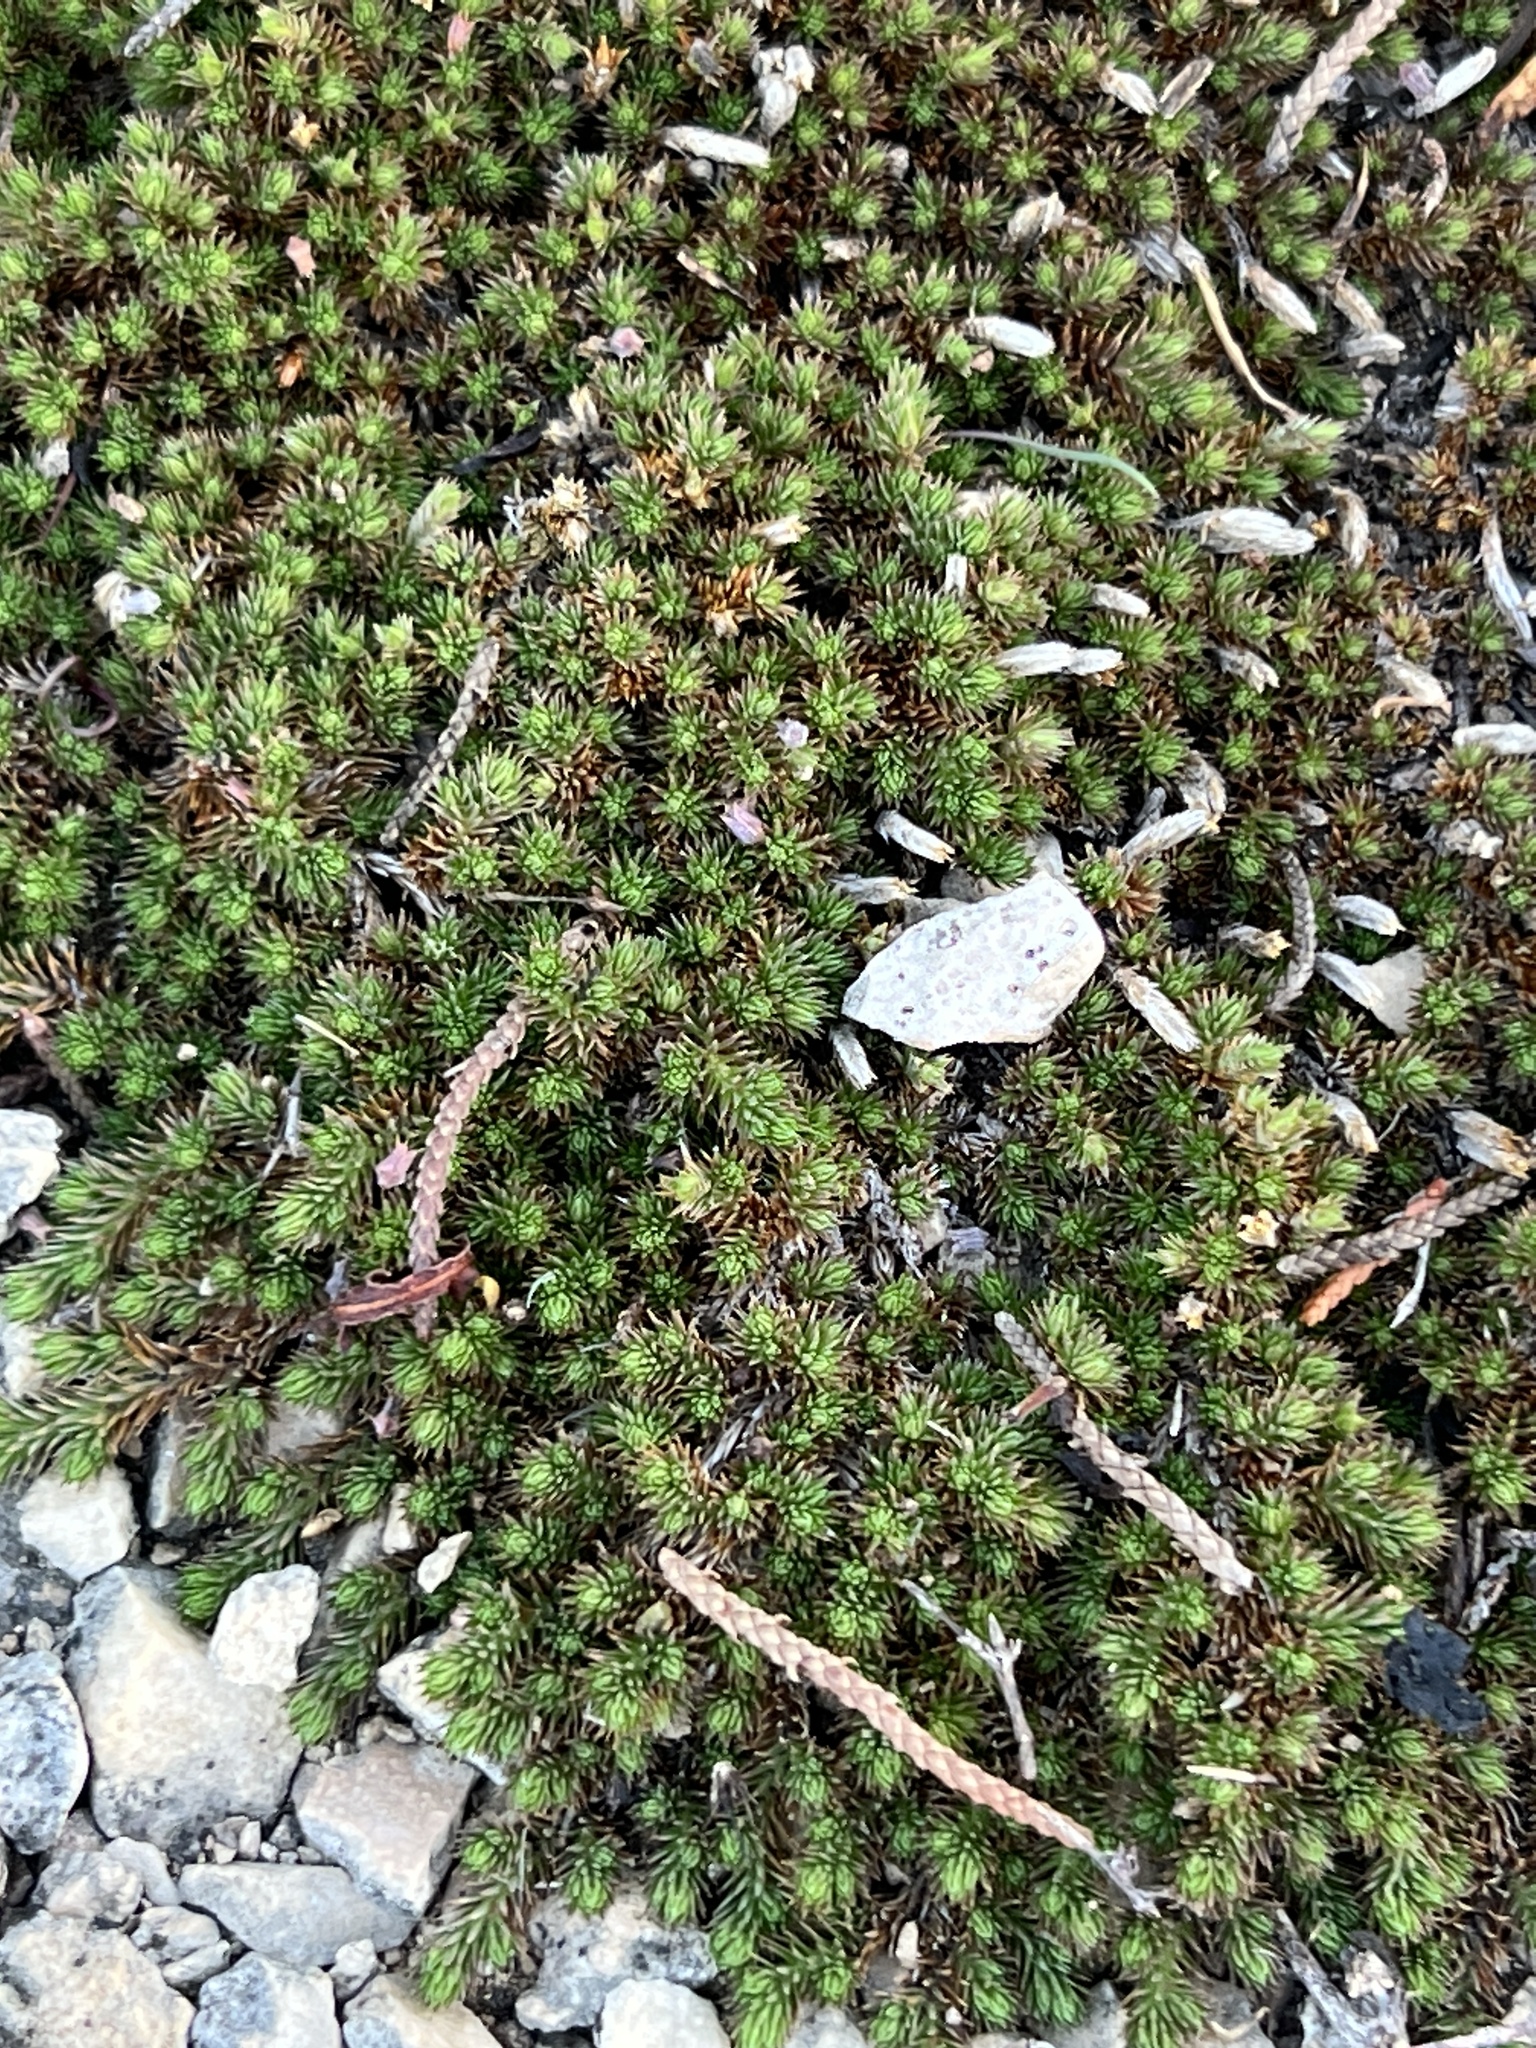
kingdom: Plantae
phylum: Tracheophyta
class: Lycopodiopsida
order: Selaginellales
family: Selaginellaceae
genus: Selaginella
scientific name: Selaginella wrightii
